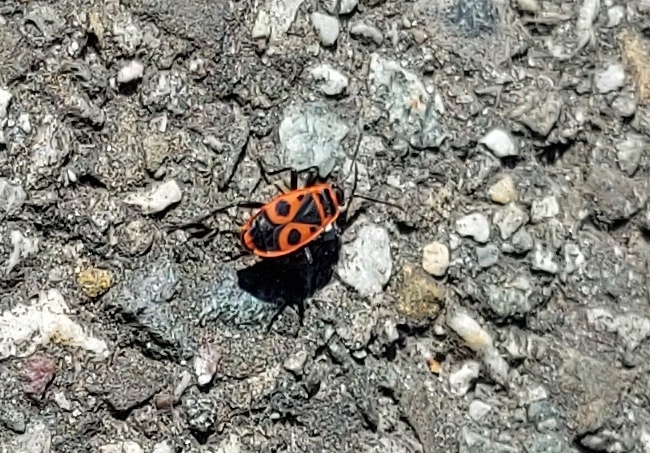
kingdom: Animalia
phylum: Arthropoda
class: Insecta
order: Hemiptera
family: Pyrrhocoridae
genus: Pyrrhocoris
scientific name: Pyrrhocoris apterus
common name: Firebug
